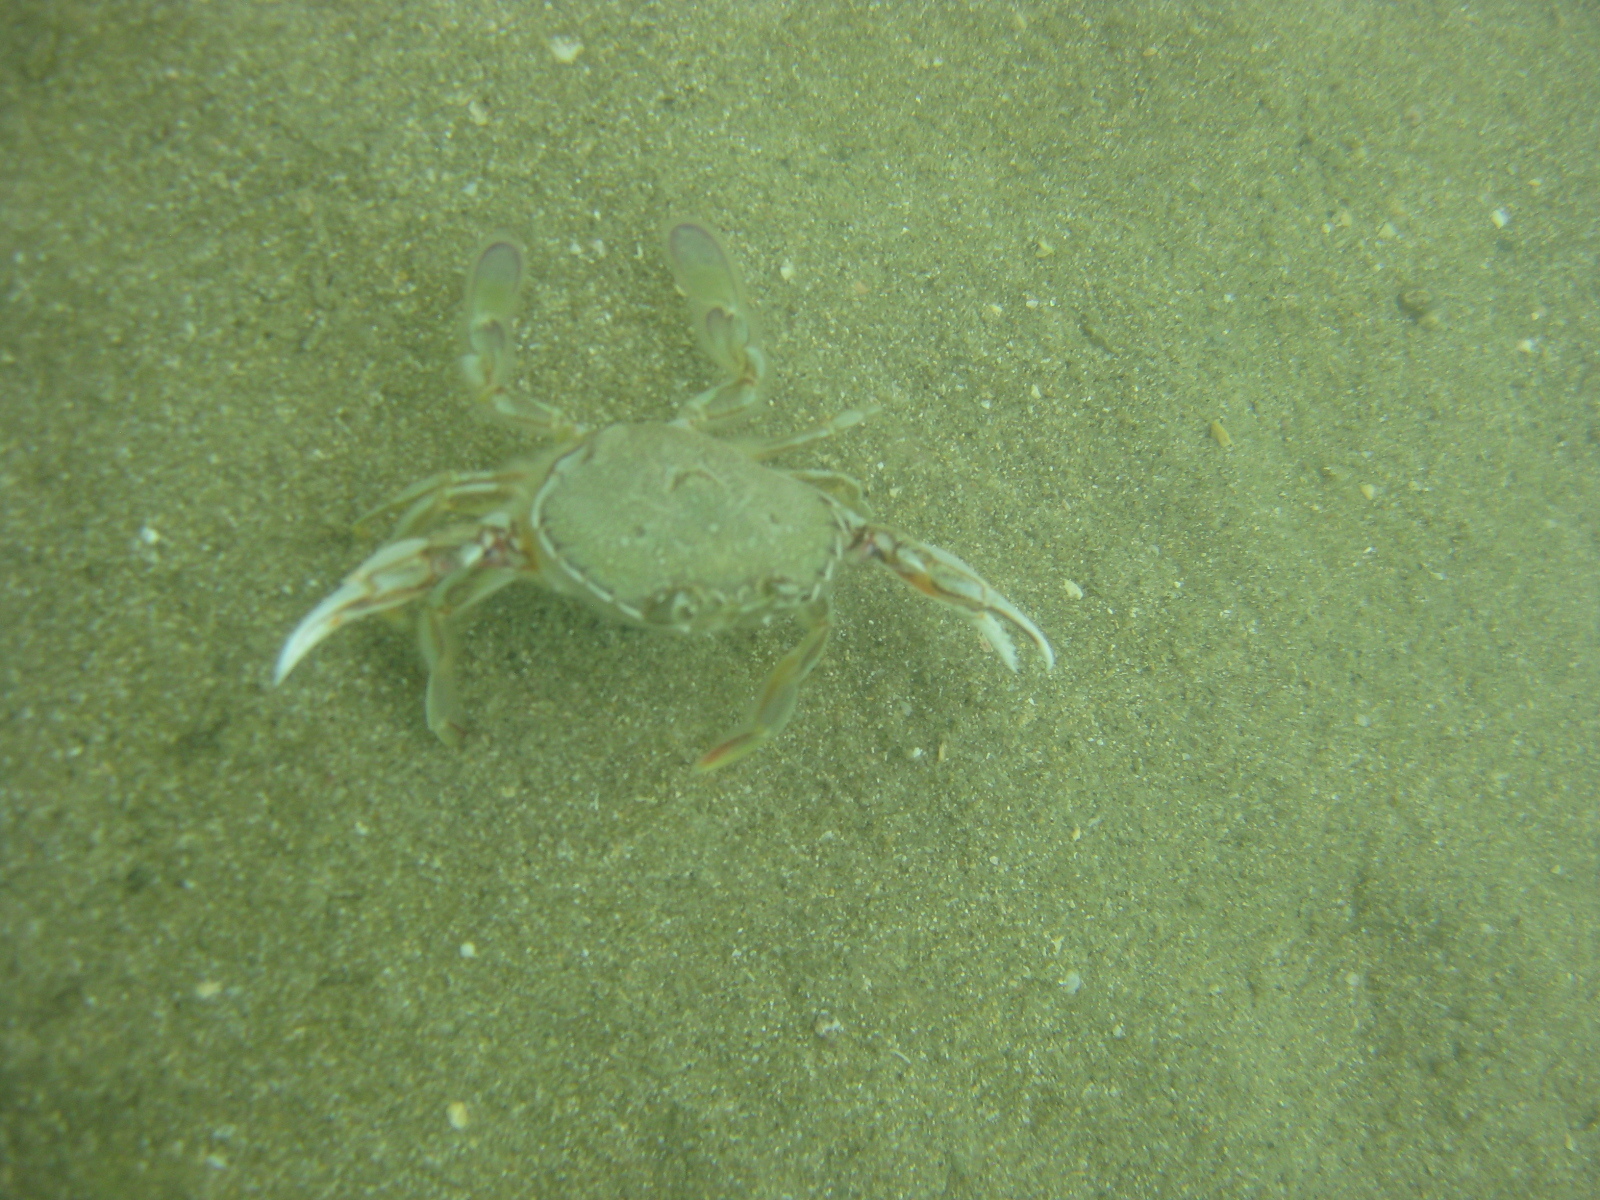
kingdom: Animalia
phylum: Arthropoda
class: Malacostraca
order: Decapoda
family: Ovalipidae
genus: Ovalipes
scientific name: Ovalipes catharus
